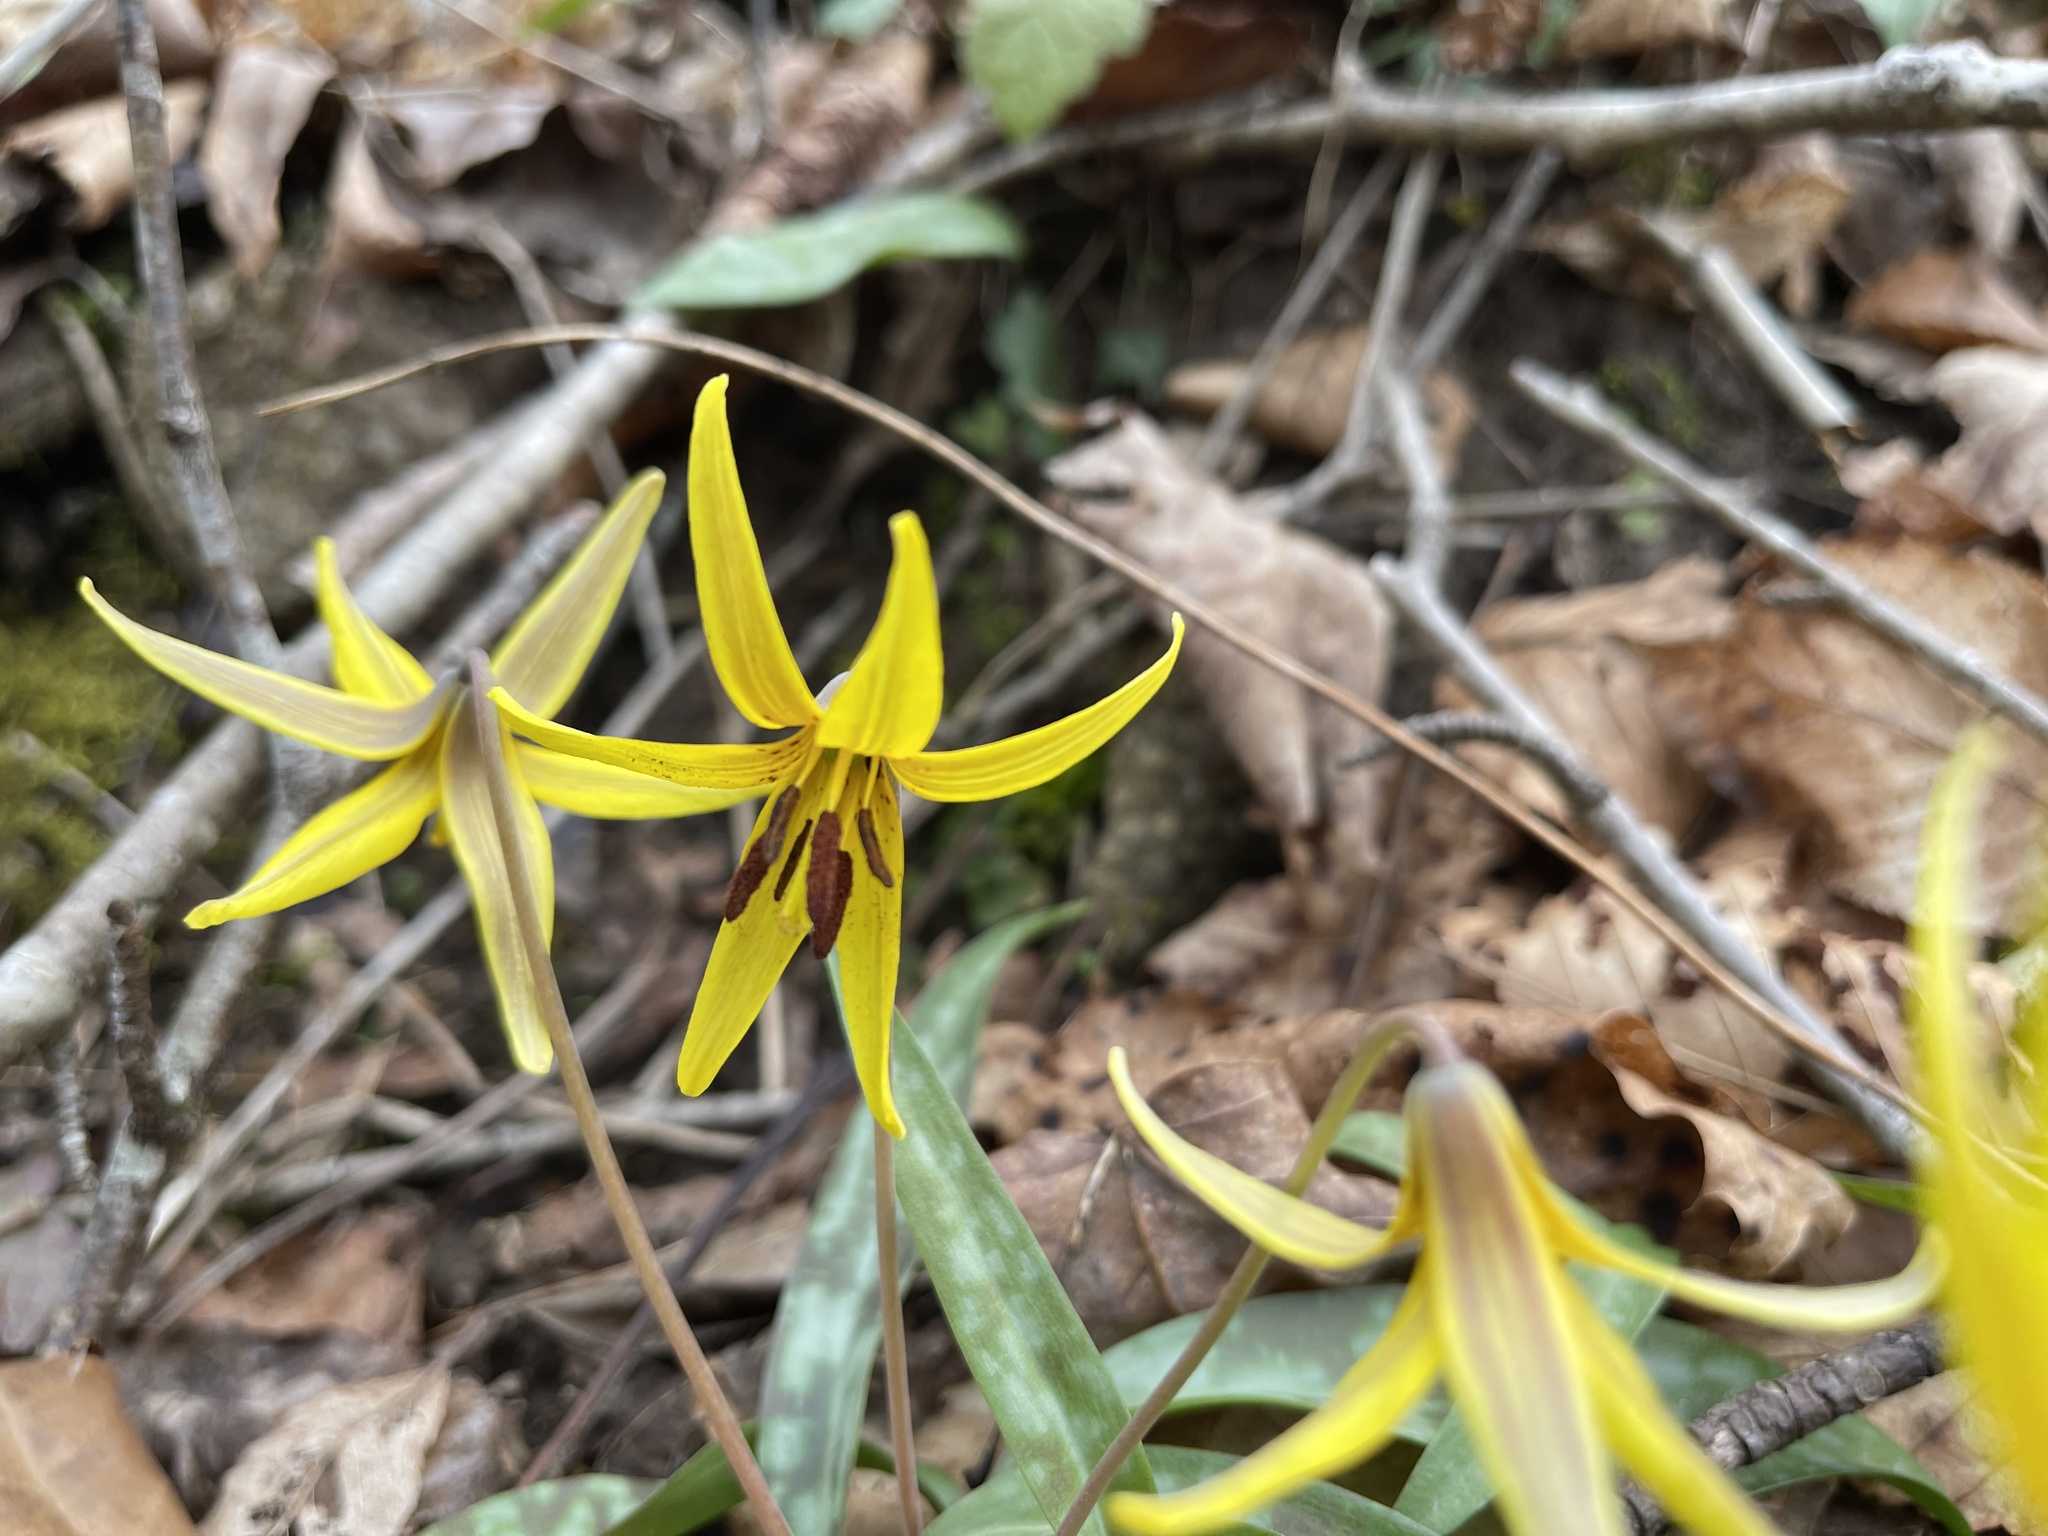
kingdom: Plantae
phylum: Tracheophyta
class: Liliopsida
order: Liliales
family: Liliaceae
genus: Erythronium
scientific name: Erythronium americanum
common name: Yellow adder's-tongue
